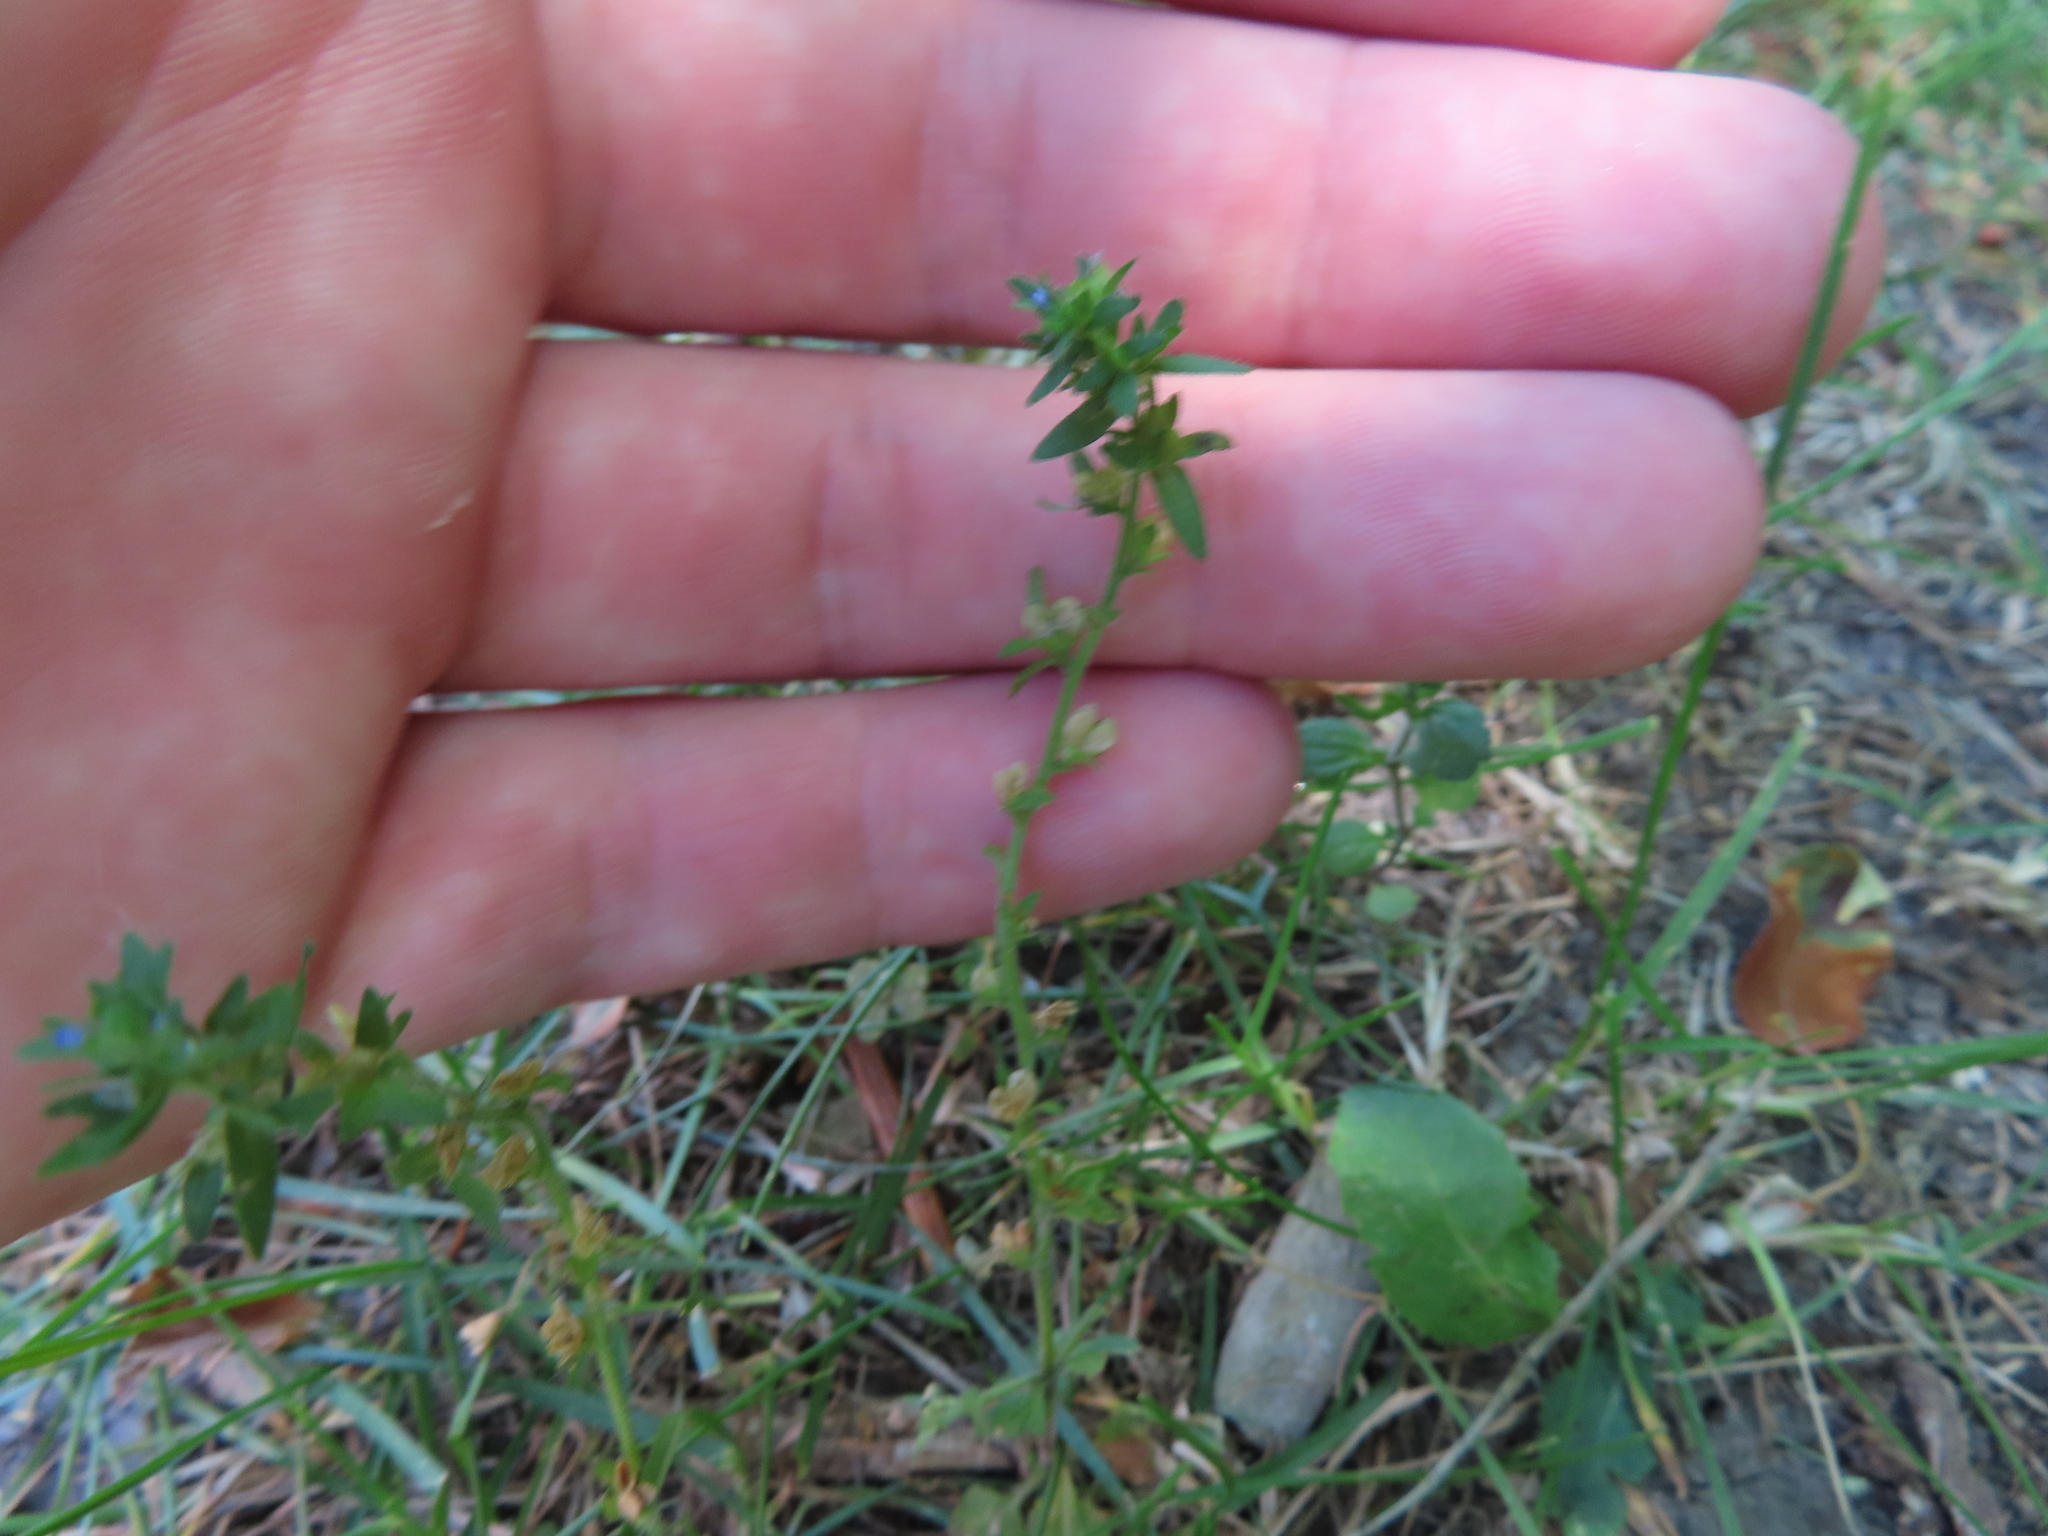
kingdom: Plantae
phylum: Tracheophyta
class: Magnoliopsida
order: Lamiales
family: Plantaginaceae
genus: Veronica
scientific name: Veronica arvensis
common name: Corn speedwell
